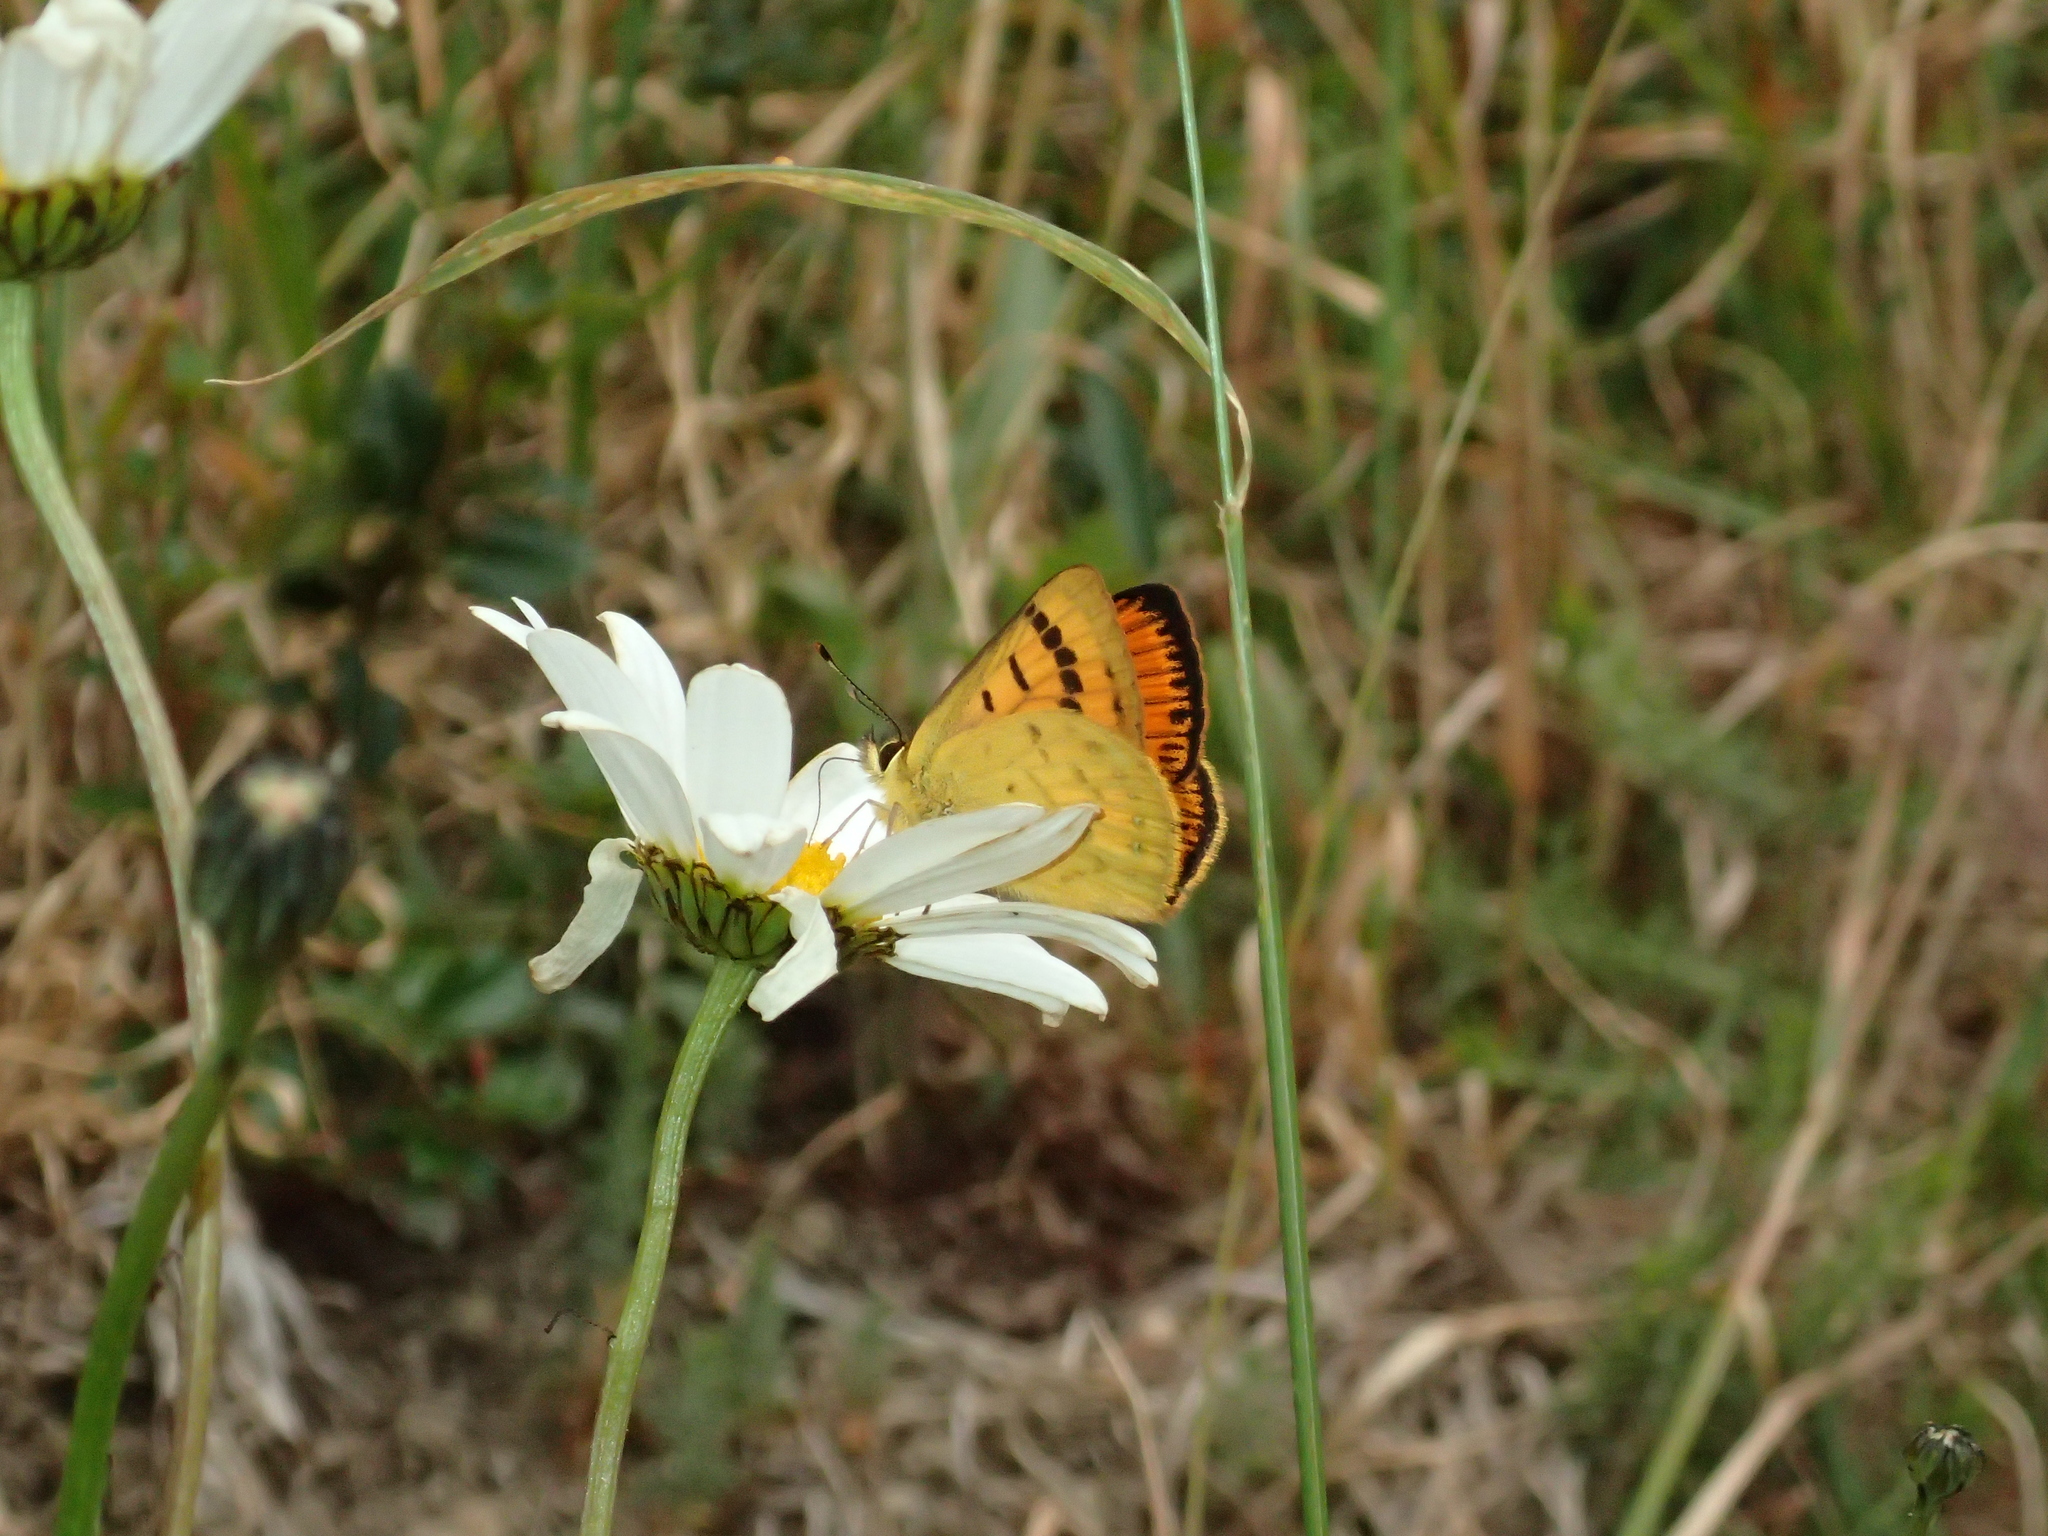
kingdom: Animalia
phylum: Arthropoda
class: Insecta
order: Lepidoptera
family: Lycaenidae
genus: Lycaena
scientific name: Lycaena salustius
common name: North island coastal copper
